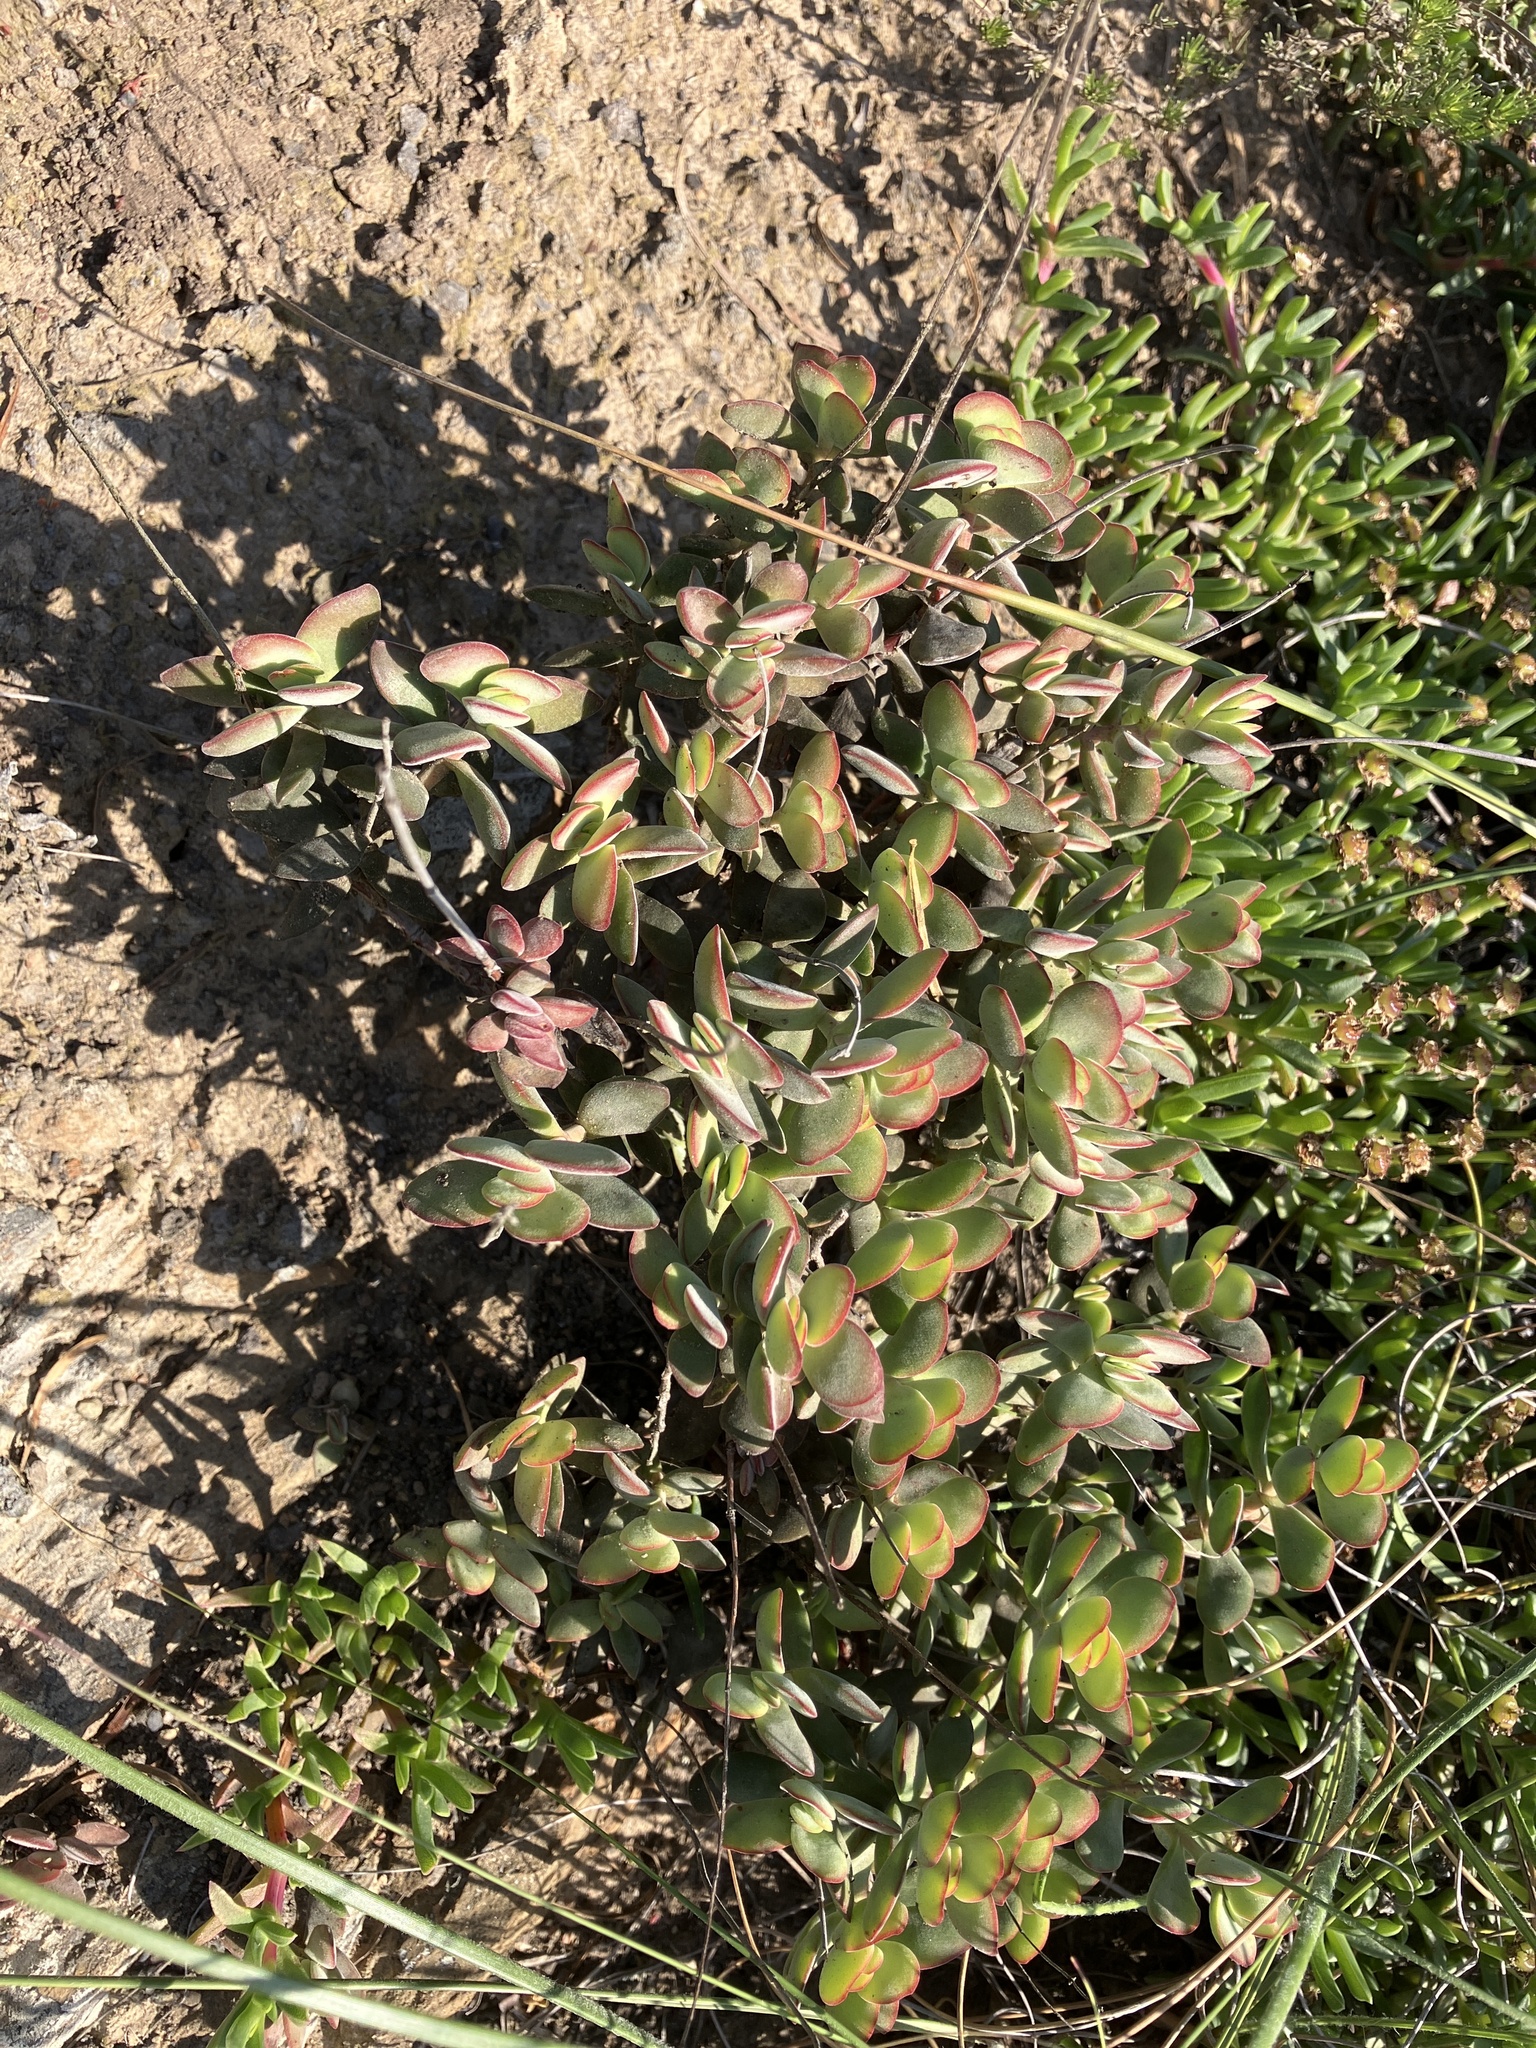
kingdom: Plantae
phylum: Tracheophyta
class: Magnoliopsida
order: Saxifragales
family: Crassulaceae
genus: Crassula
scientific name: Crassula atropurpurea
